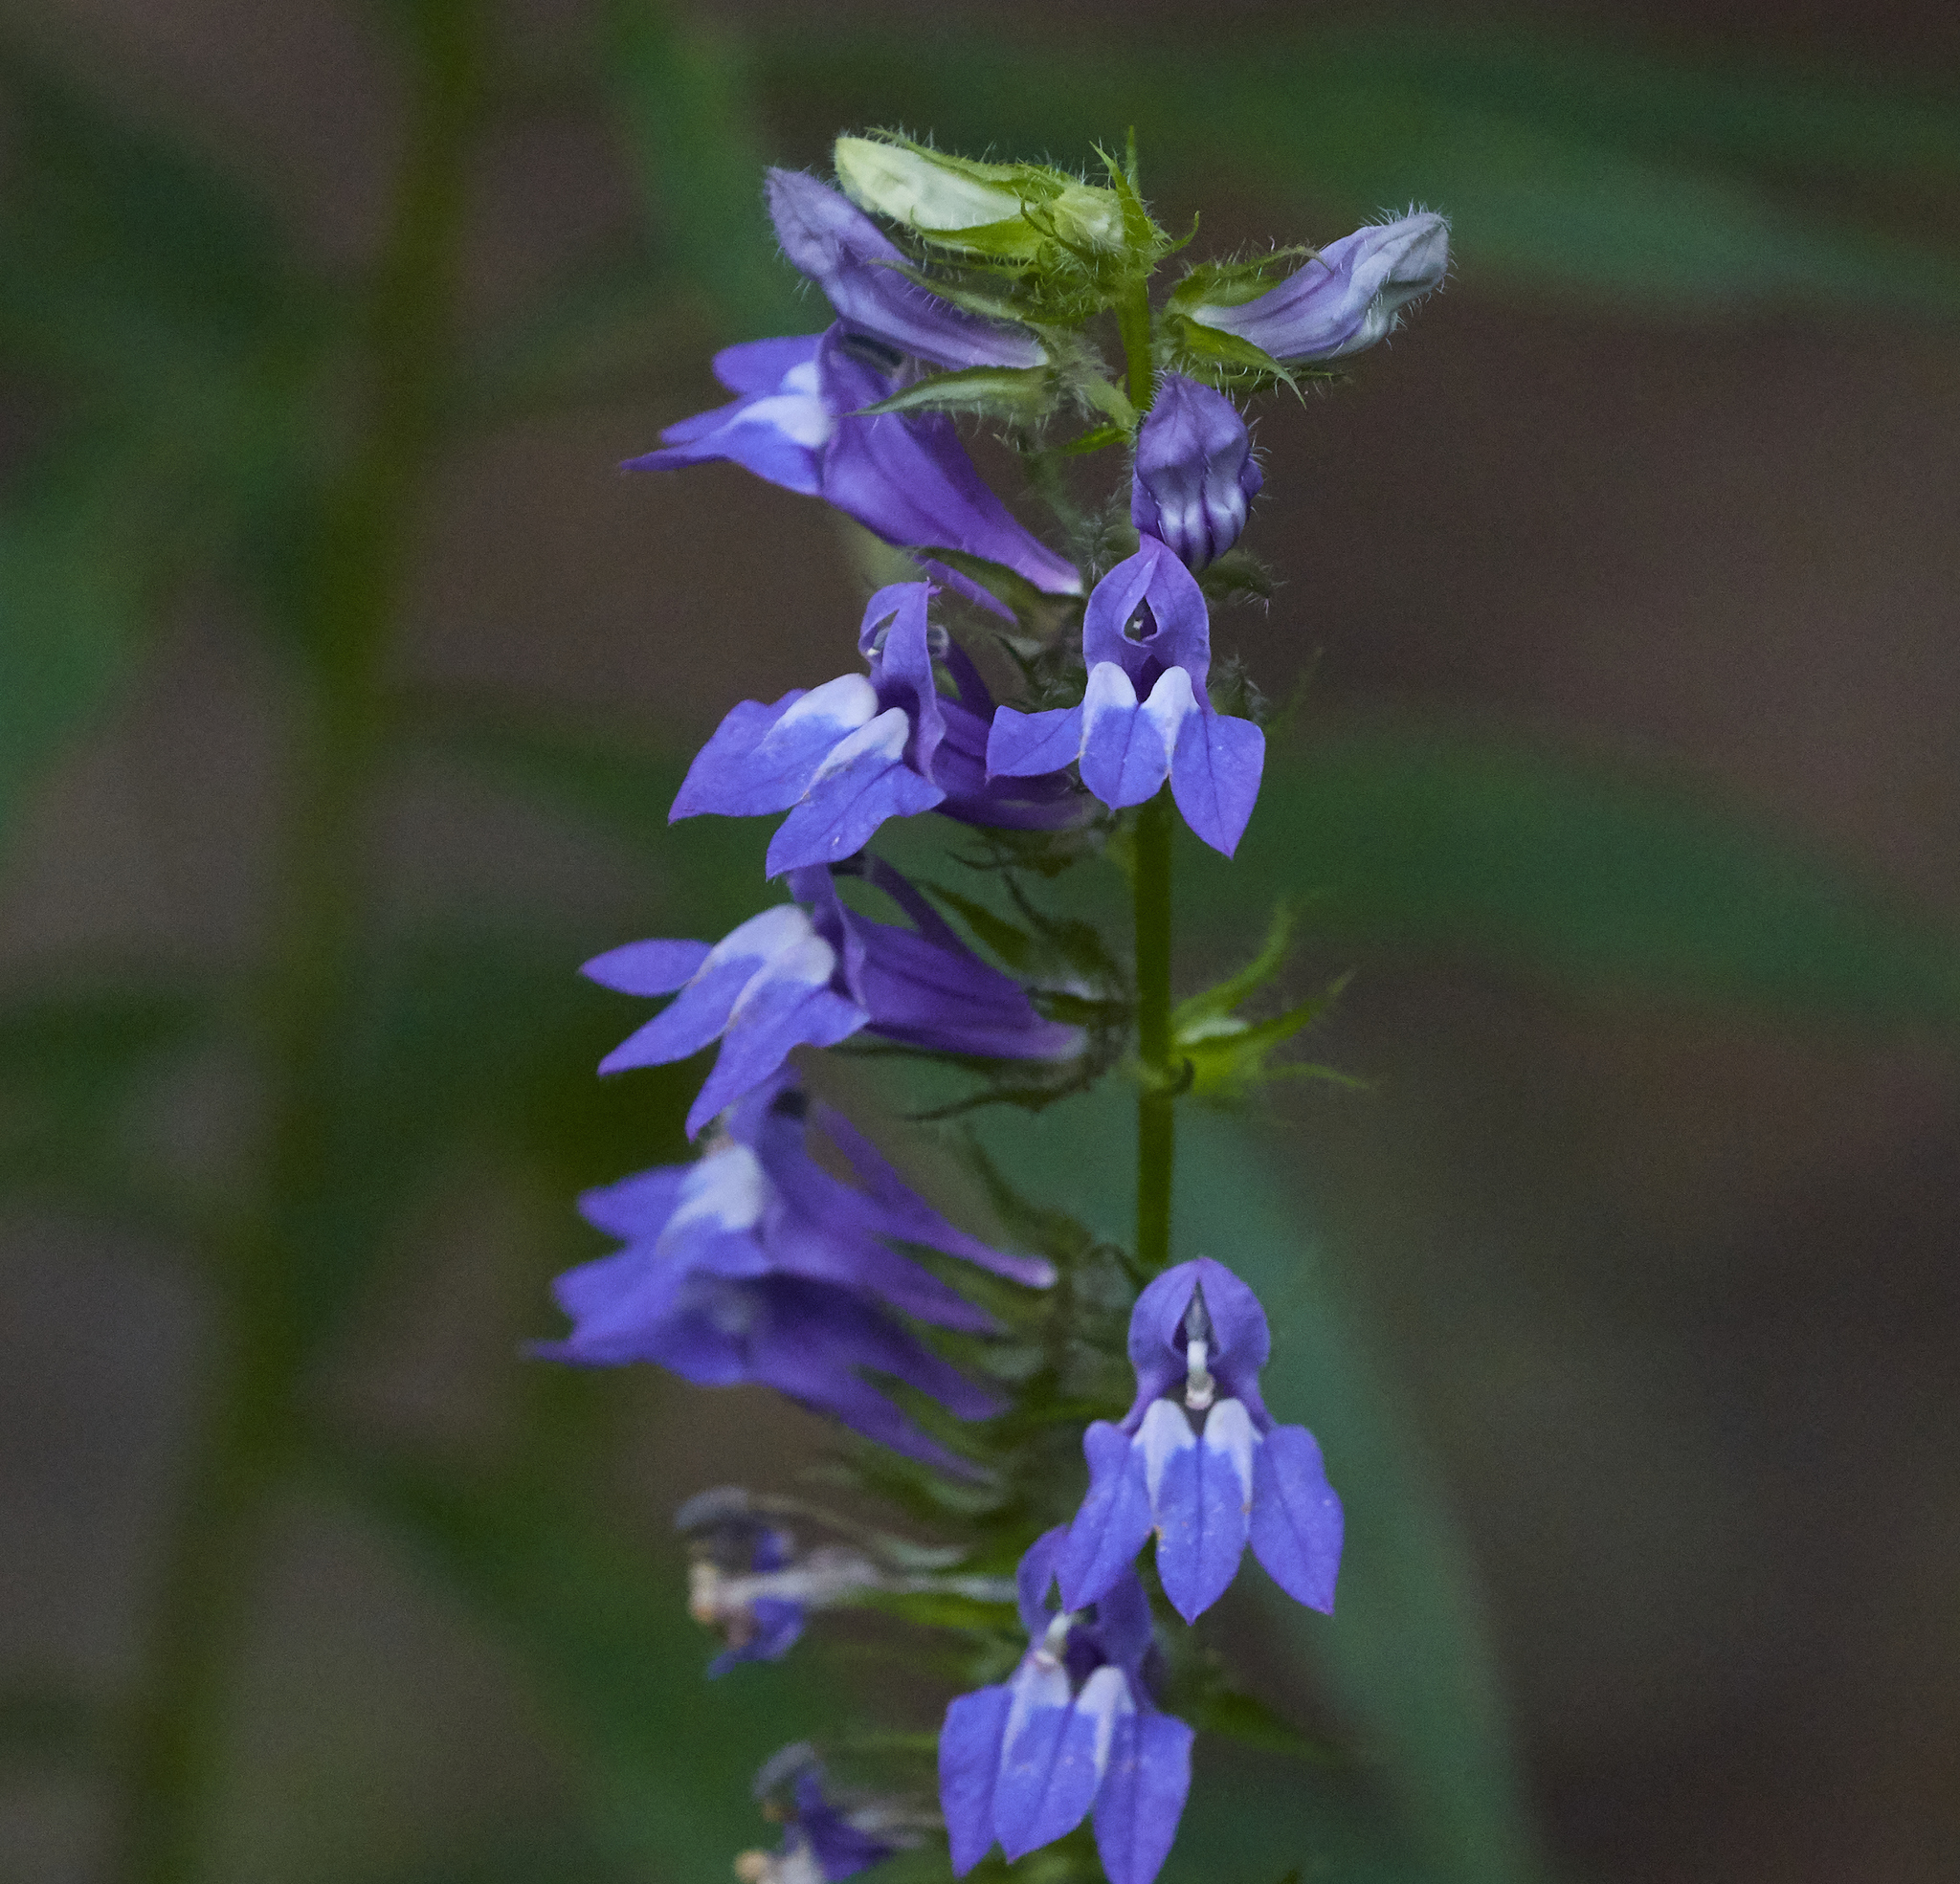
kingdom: Plantae
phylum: Tracheophyta
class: Magnoliopsida
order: Asterales
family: Campanulaceae
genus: Lobelia
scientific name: Lobelia siphilitica
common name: Great lobelia
